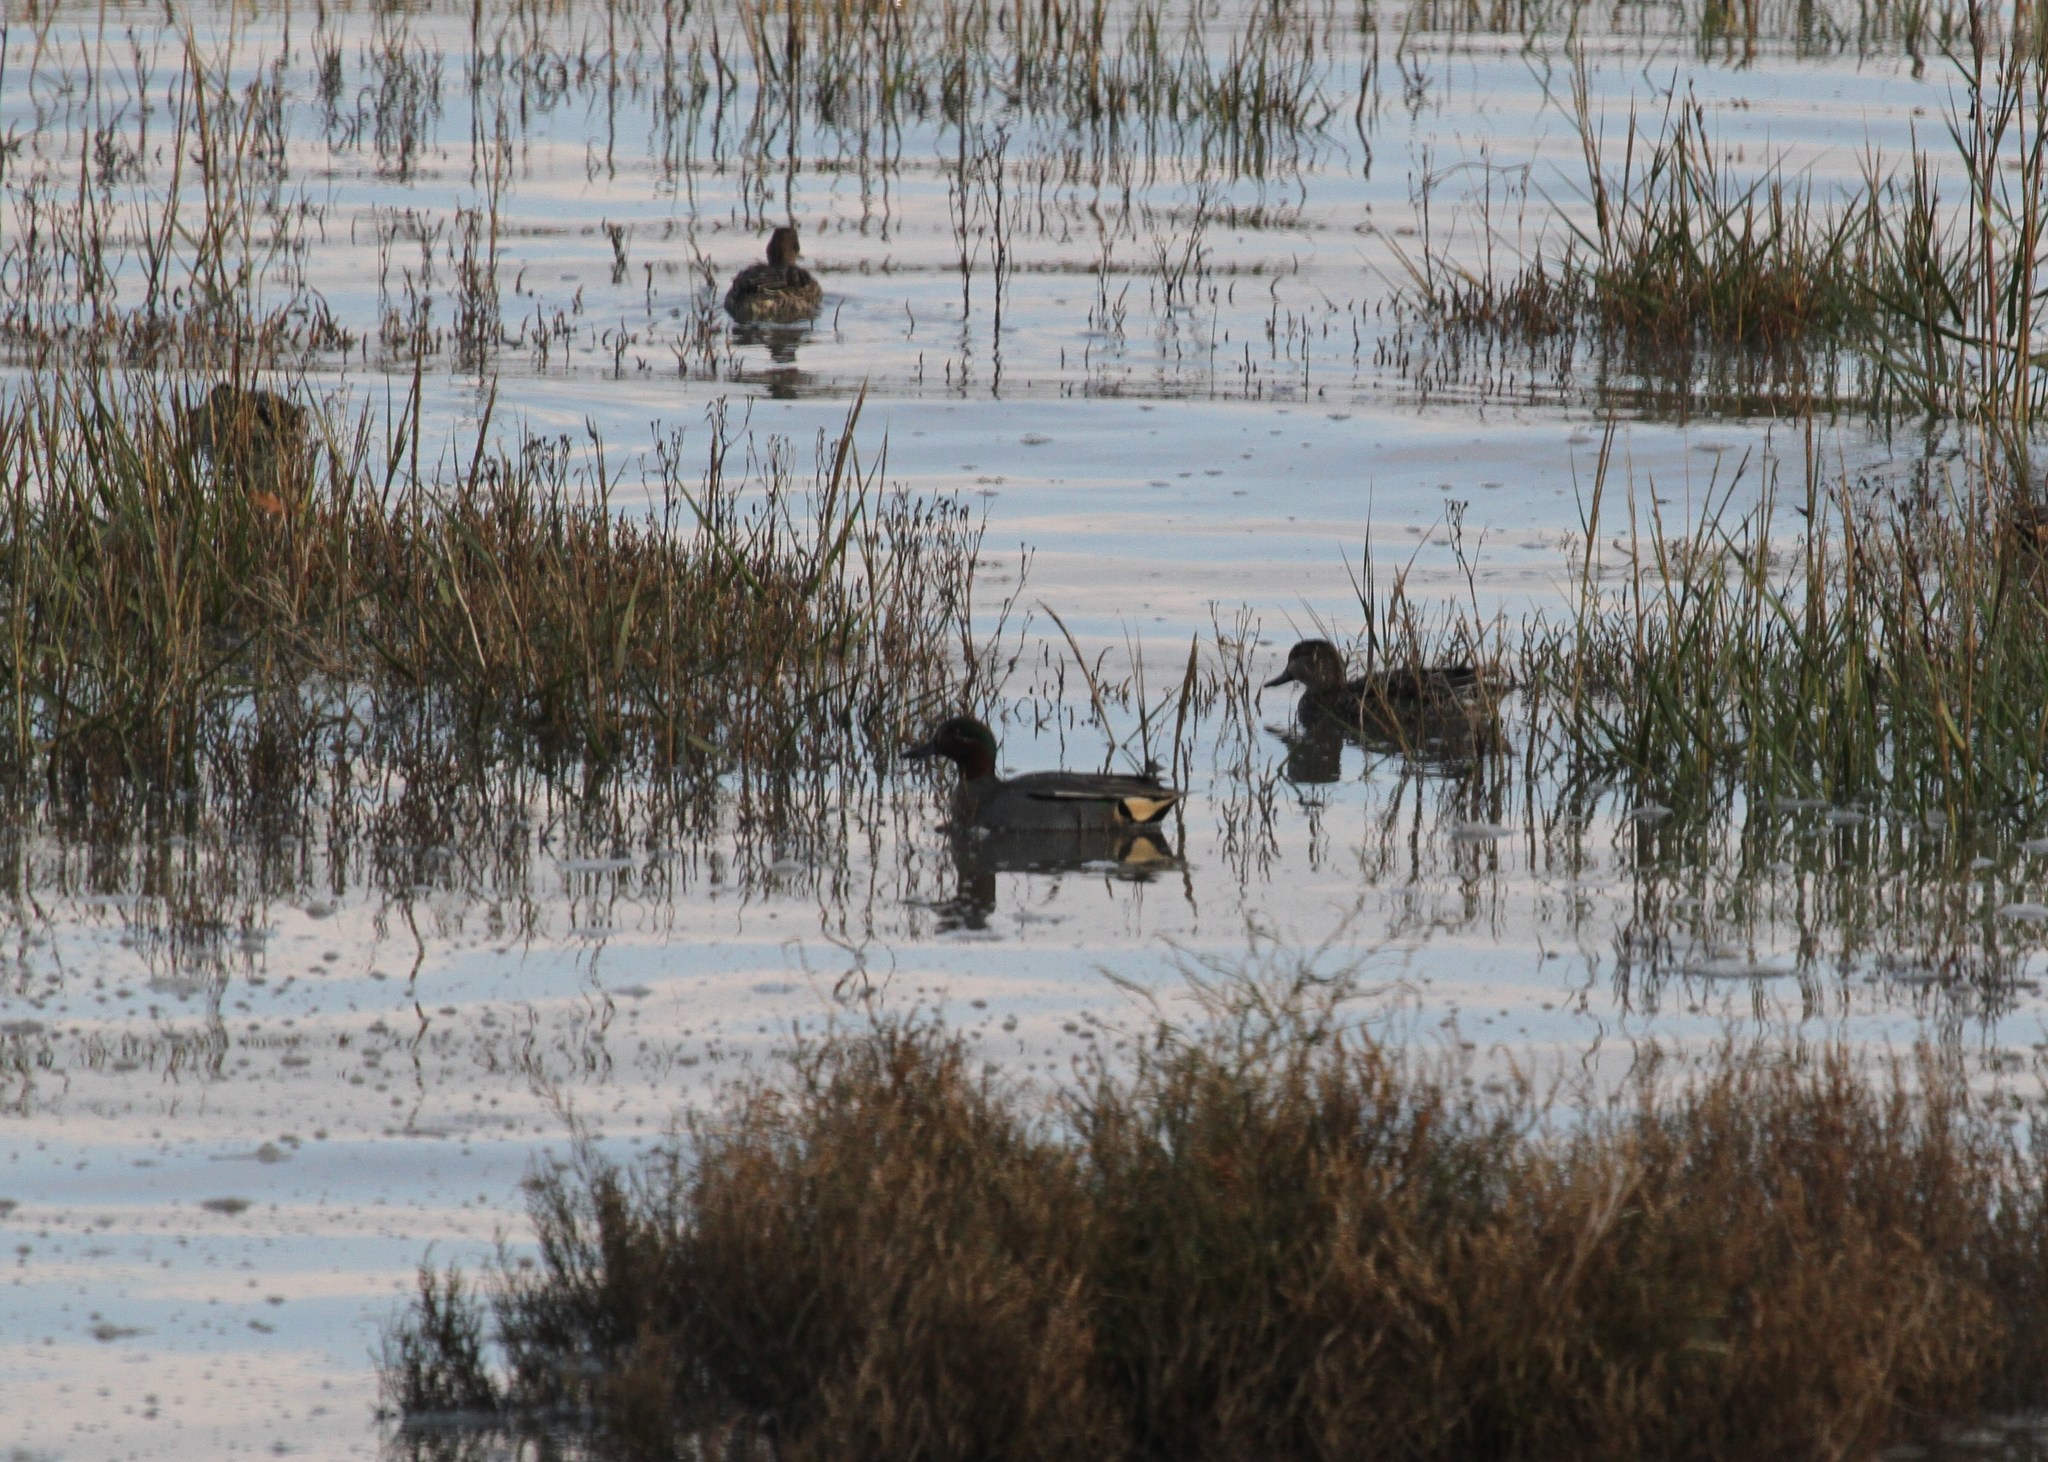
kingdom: Animalia
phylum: Chordata
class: Aves
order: Anseriformes
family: Anatidae
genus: Anas
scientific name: Anas crecca
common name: Eurasian teal
